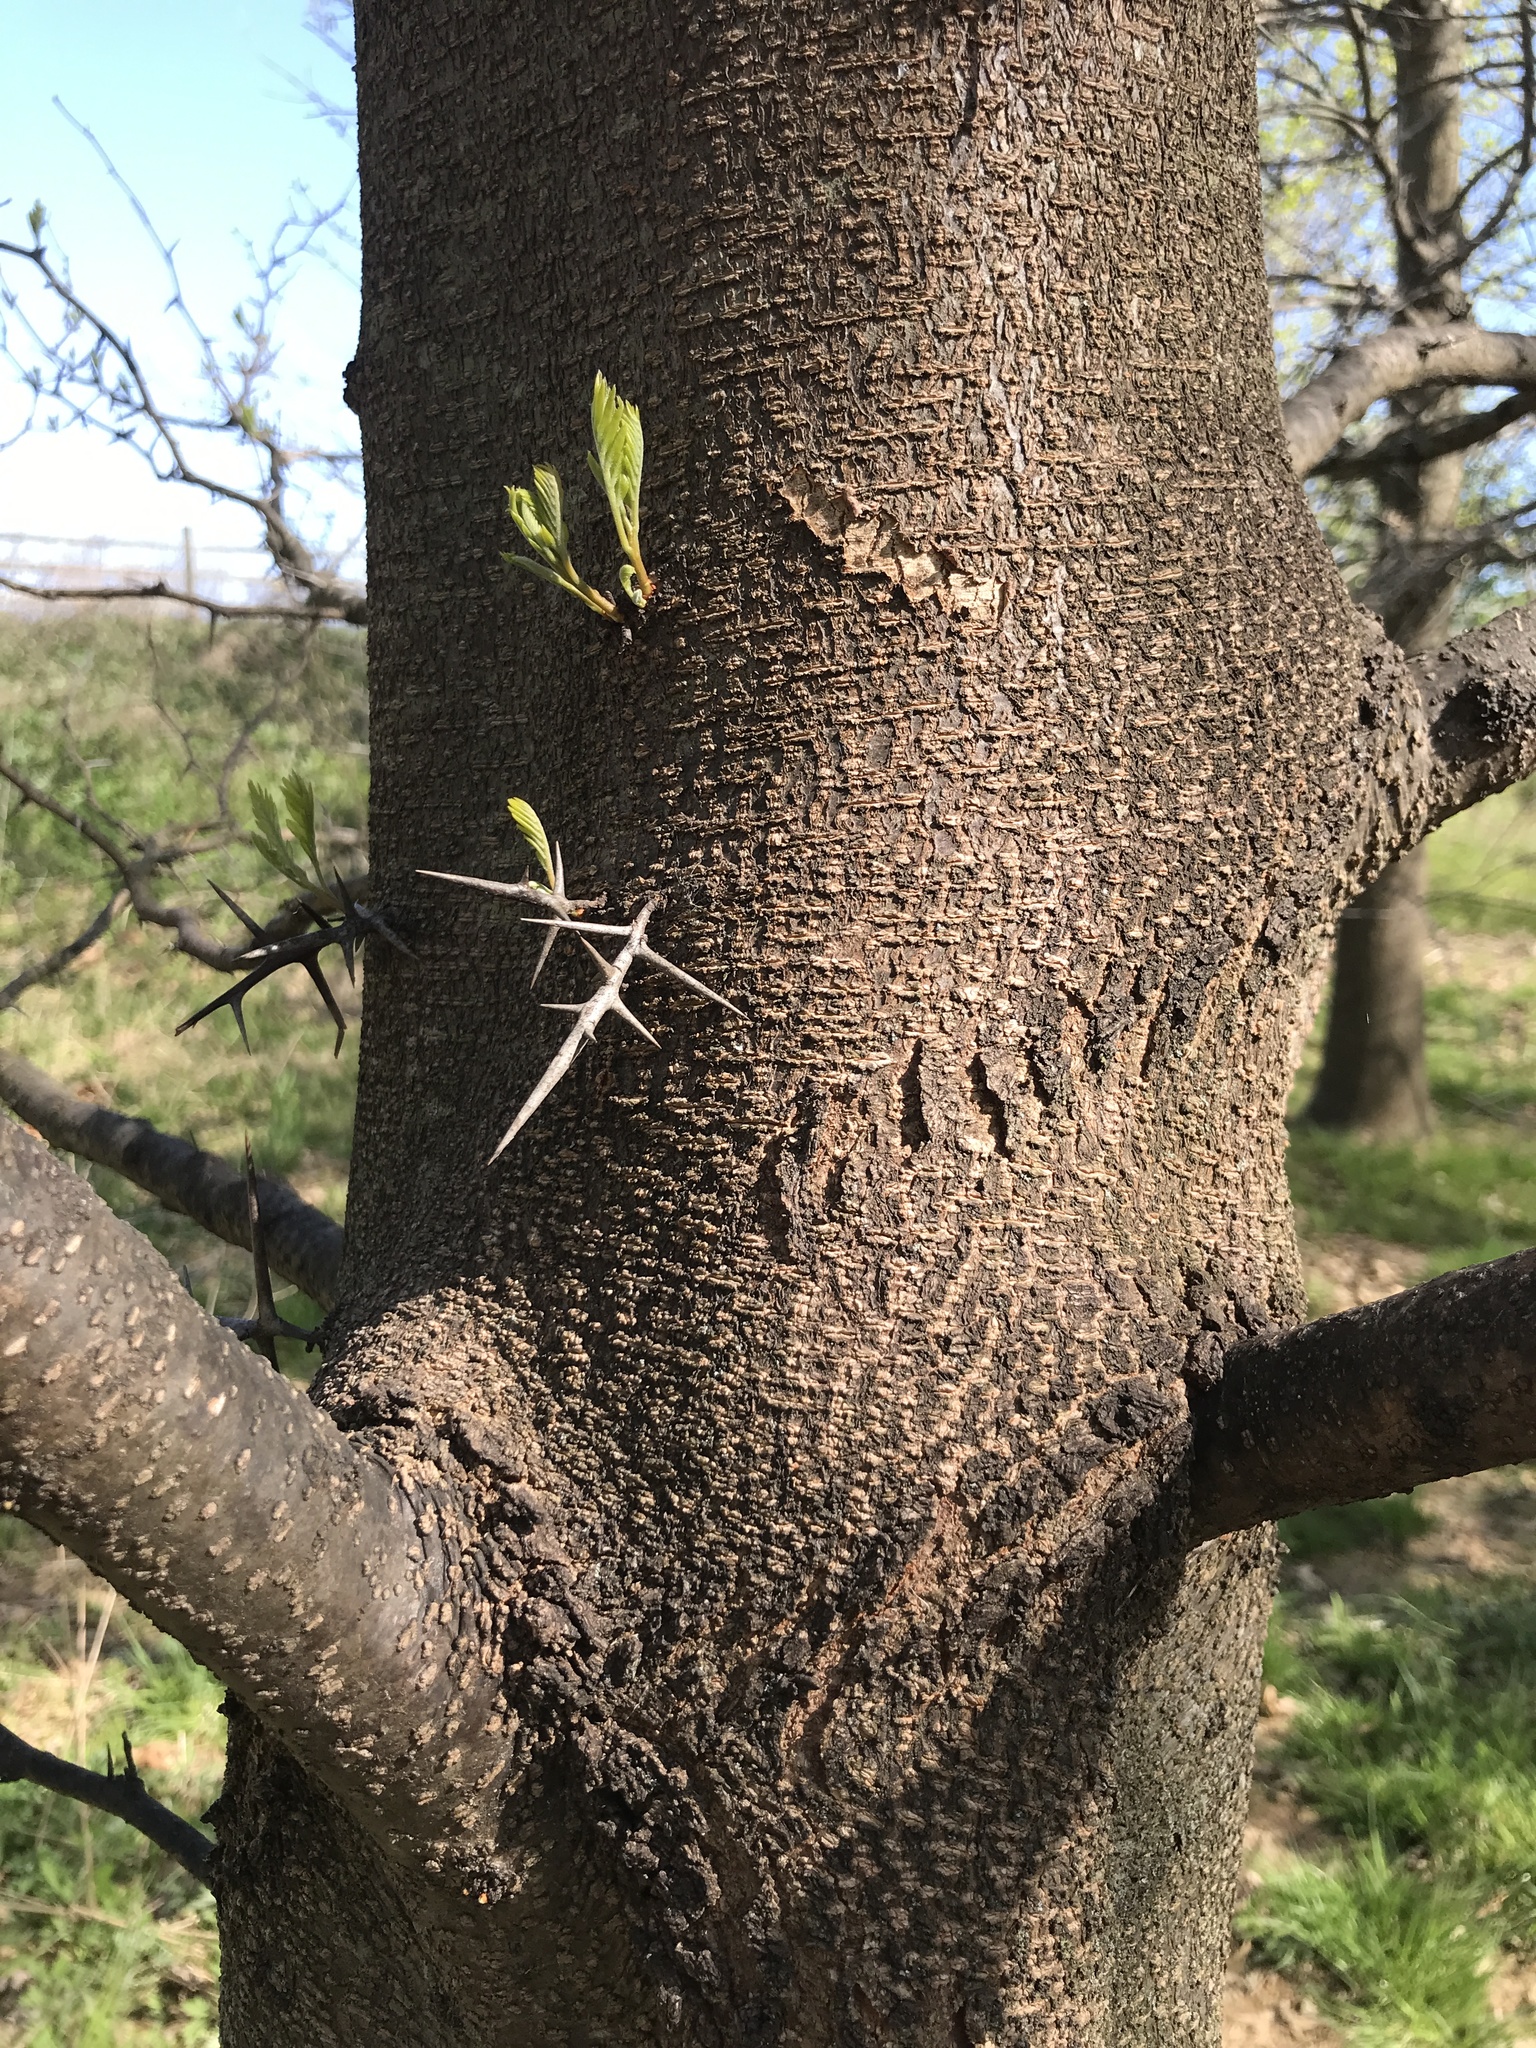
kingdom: Plantae
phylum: Tracheophyta
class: Magnoliopsida
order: Fabales
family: Fabaceae
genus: Gleditsia
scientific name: Gleditsia triacanthos
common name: Common honeylocust
